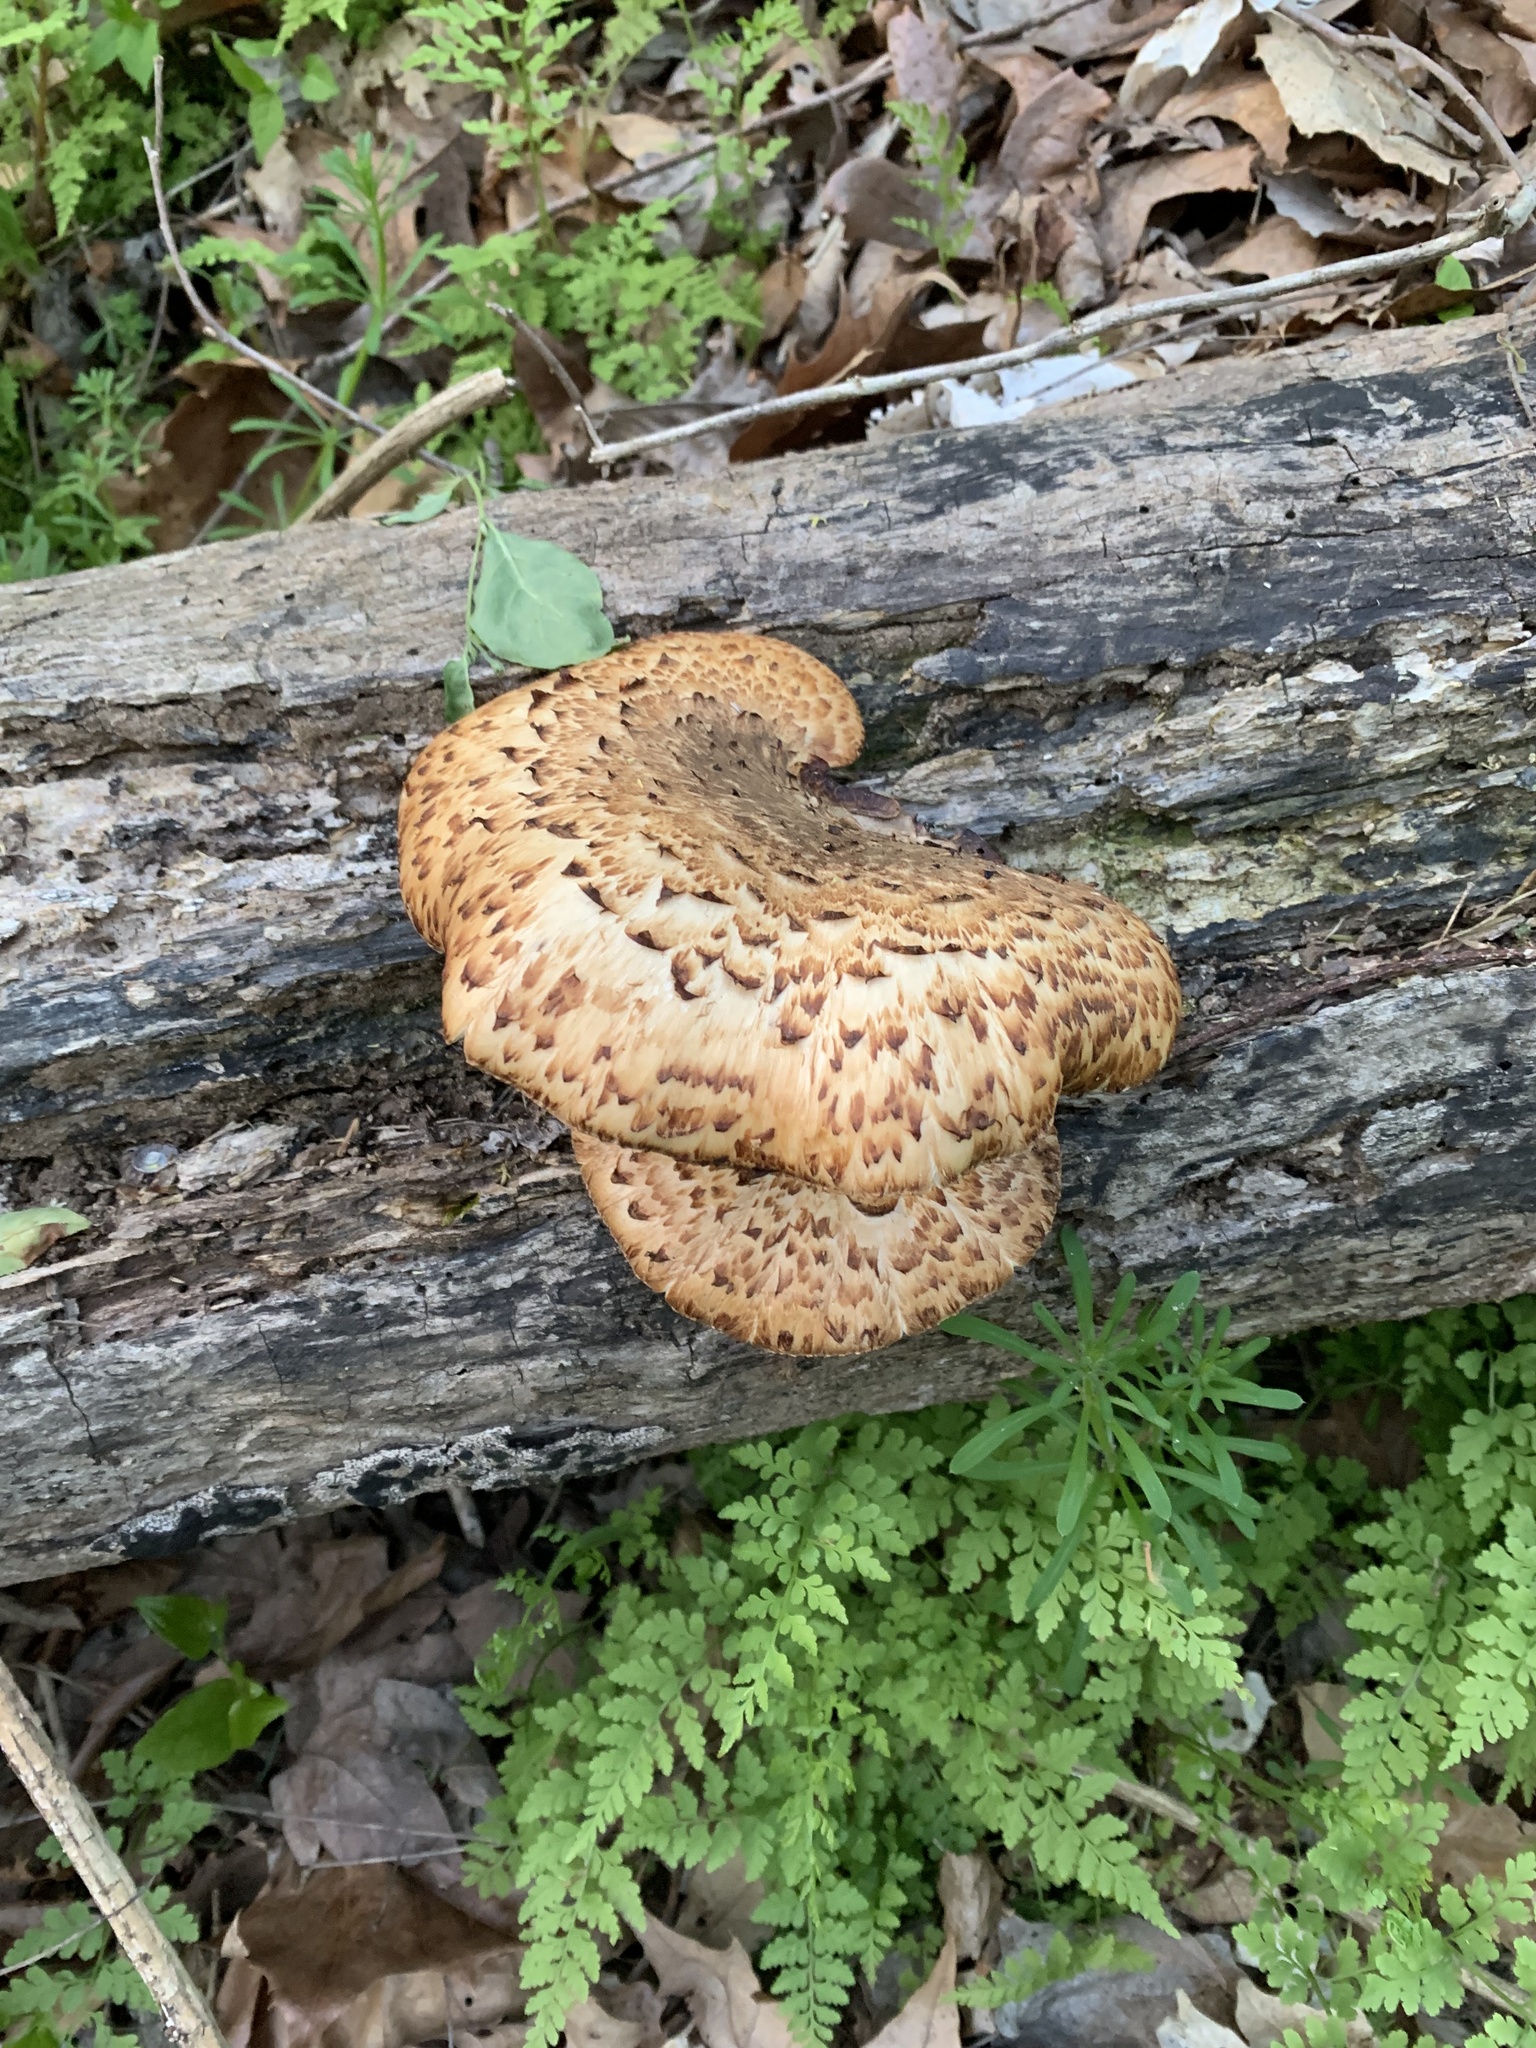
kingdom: Fungi
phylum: Basidiomycota
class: Agaricomycetes
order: Polyporales
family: Polyporaceae
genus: Cerioporus
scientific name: Cerioporus squamosus
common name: Dryad's saddle
